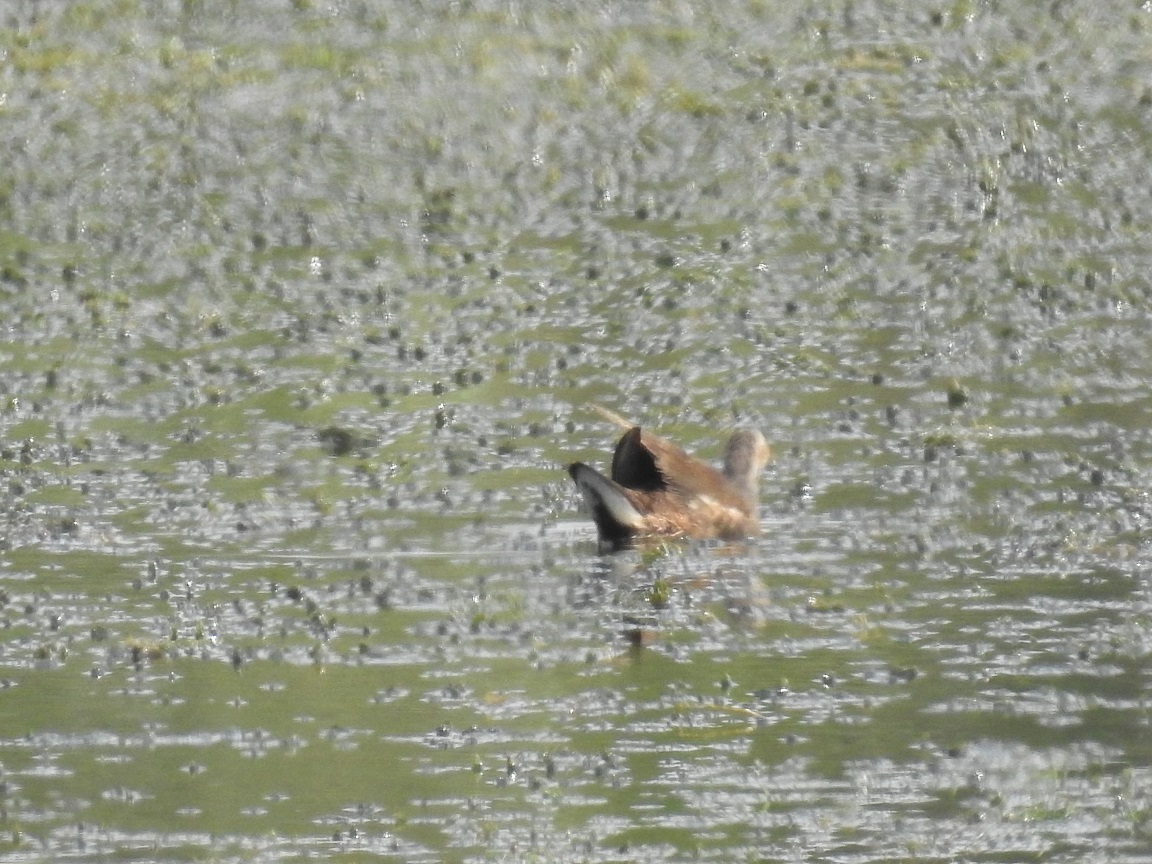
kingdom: Animalia
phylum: Chordata
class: Aves
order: Gruiformes
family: Rallidae
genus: Gallinula
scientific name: Gallinula chloropus
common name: Common moorhen
